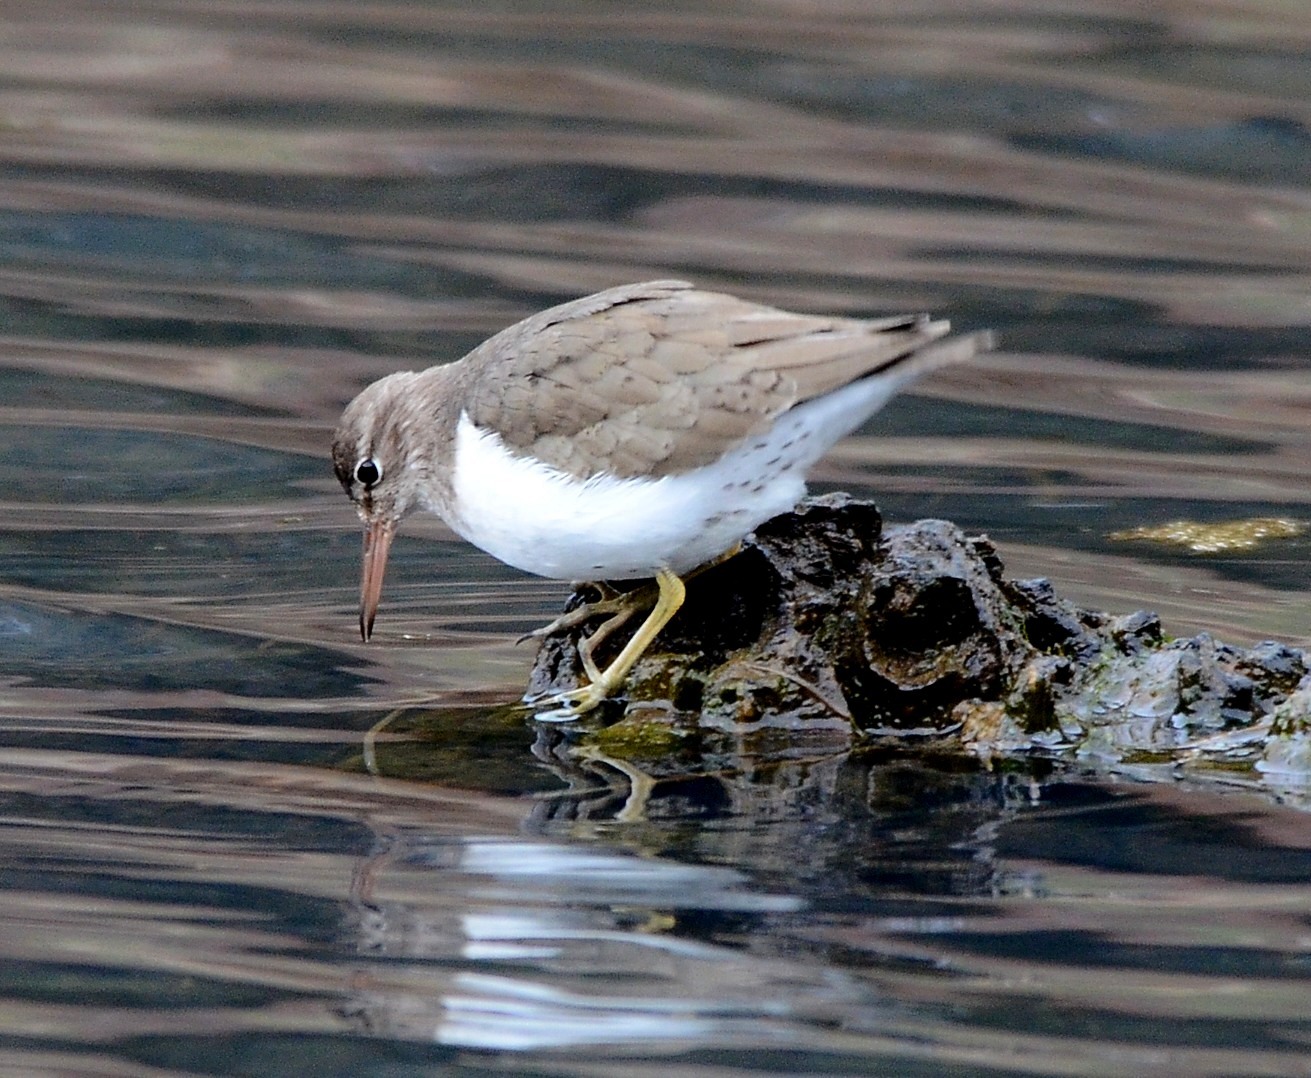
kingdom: Animalia
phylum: Chordata
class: Aves
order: Charadriiformes
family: Scolopacidae
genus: Actitis
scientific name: Actitis macularius
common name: Spotted sandpiper
